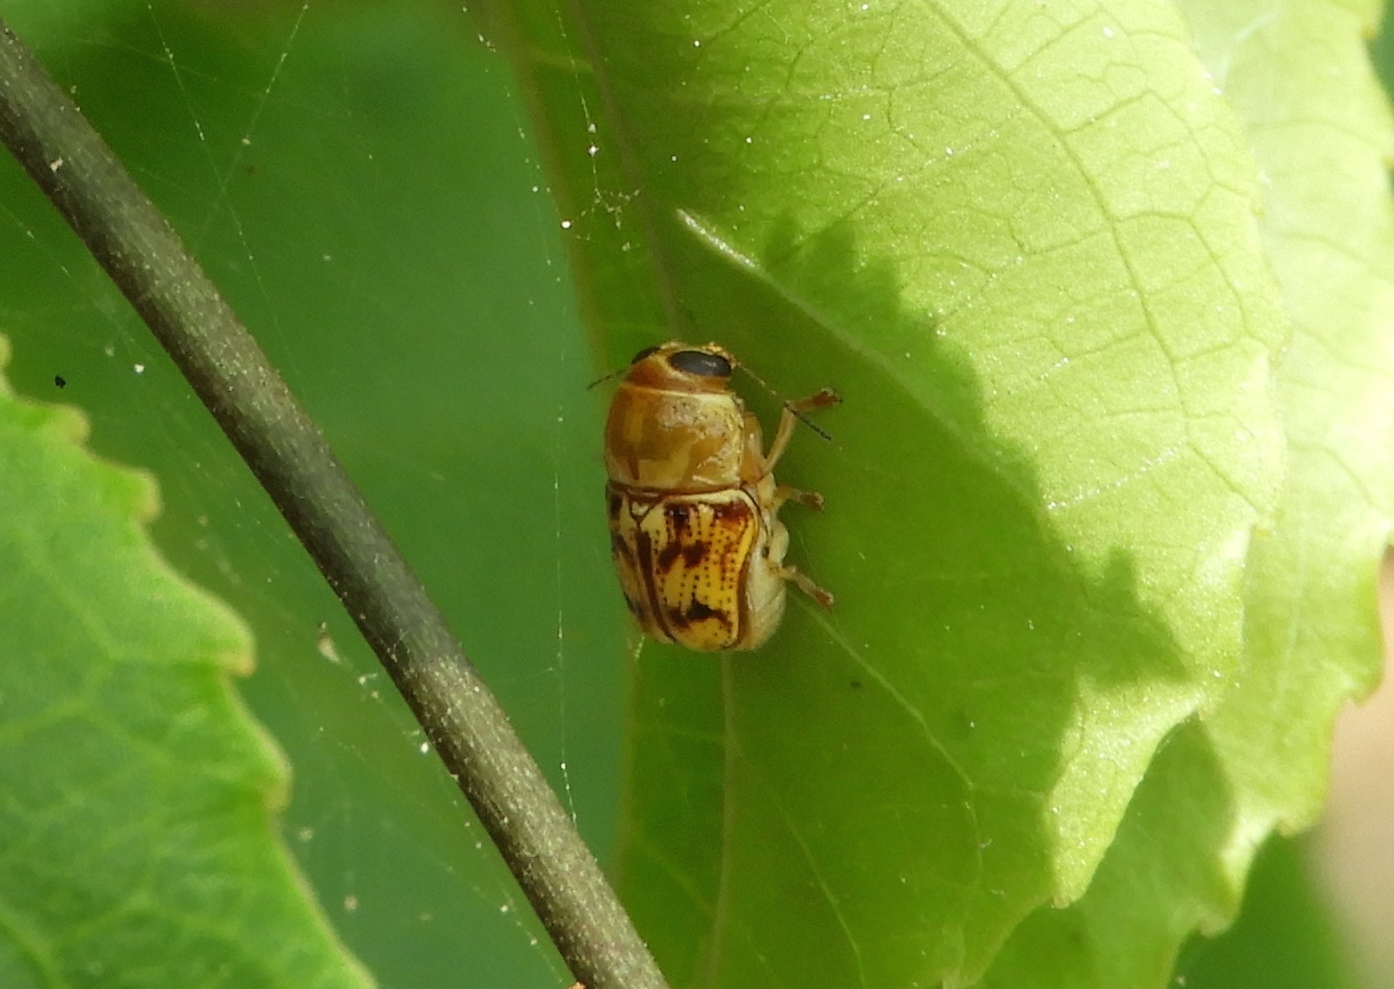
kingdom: Animalia
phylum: Arthropoda
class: Insecta
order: Coleoptera
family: Chrysomelidae
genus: Griburius
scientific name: Griburius puncturatus
